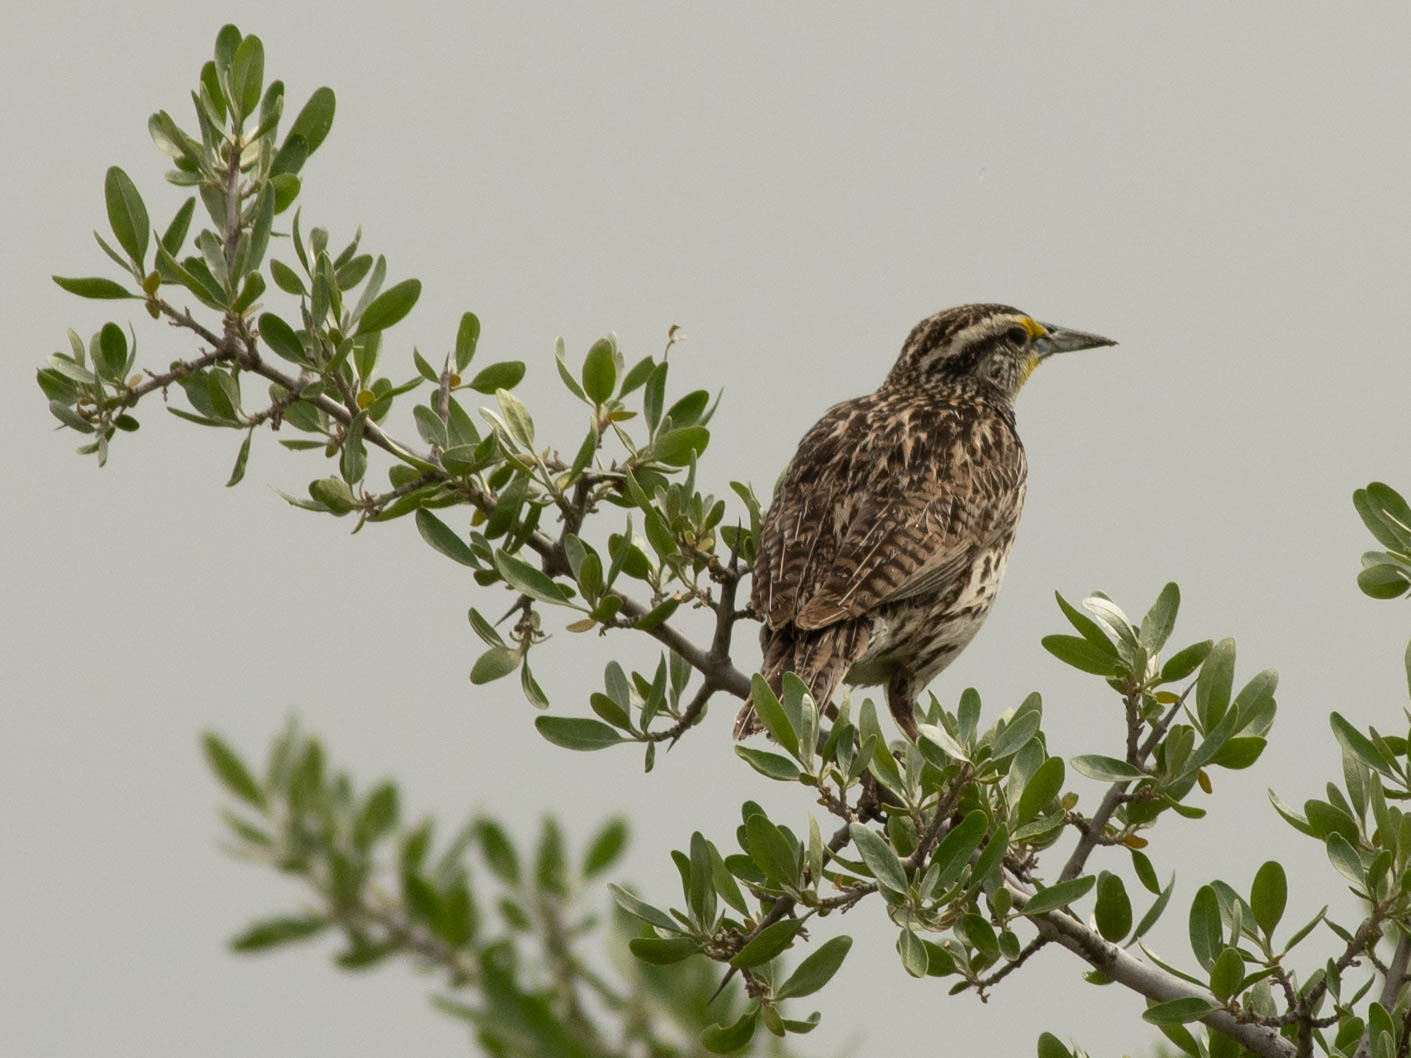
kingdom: Animalia
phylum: Chordata
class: Aves
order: Passeriformes
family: Icteridae
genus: Sturnella
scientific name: Sturnella neglecta
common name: Western meadowlark
